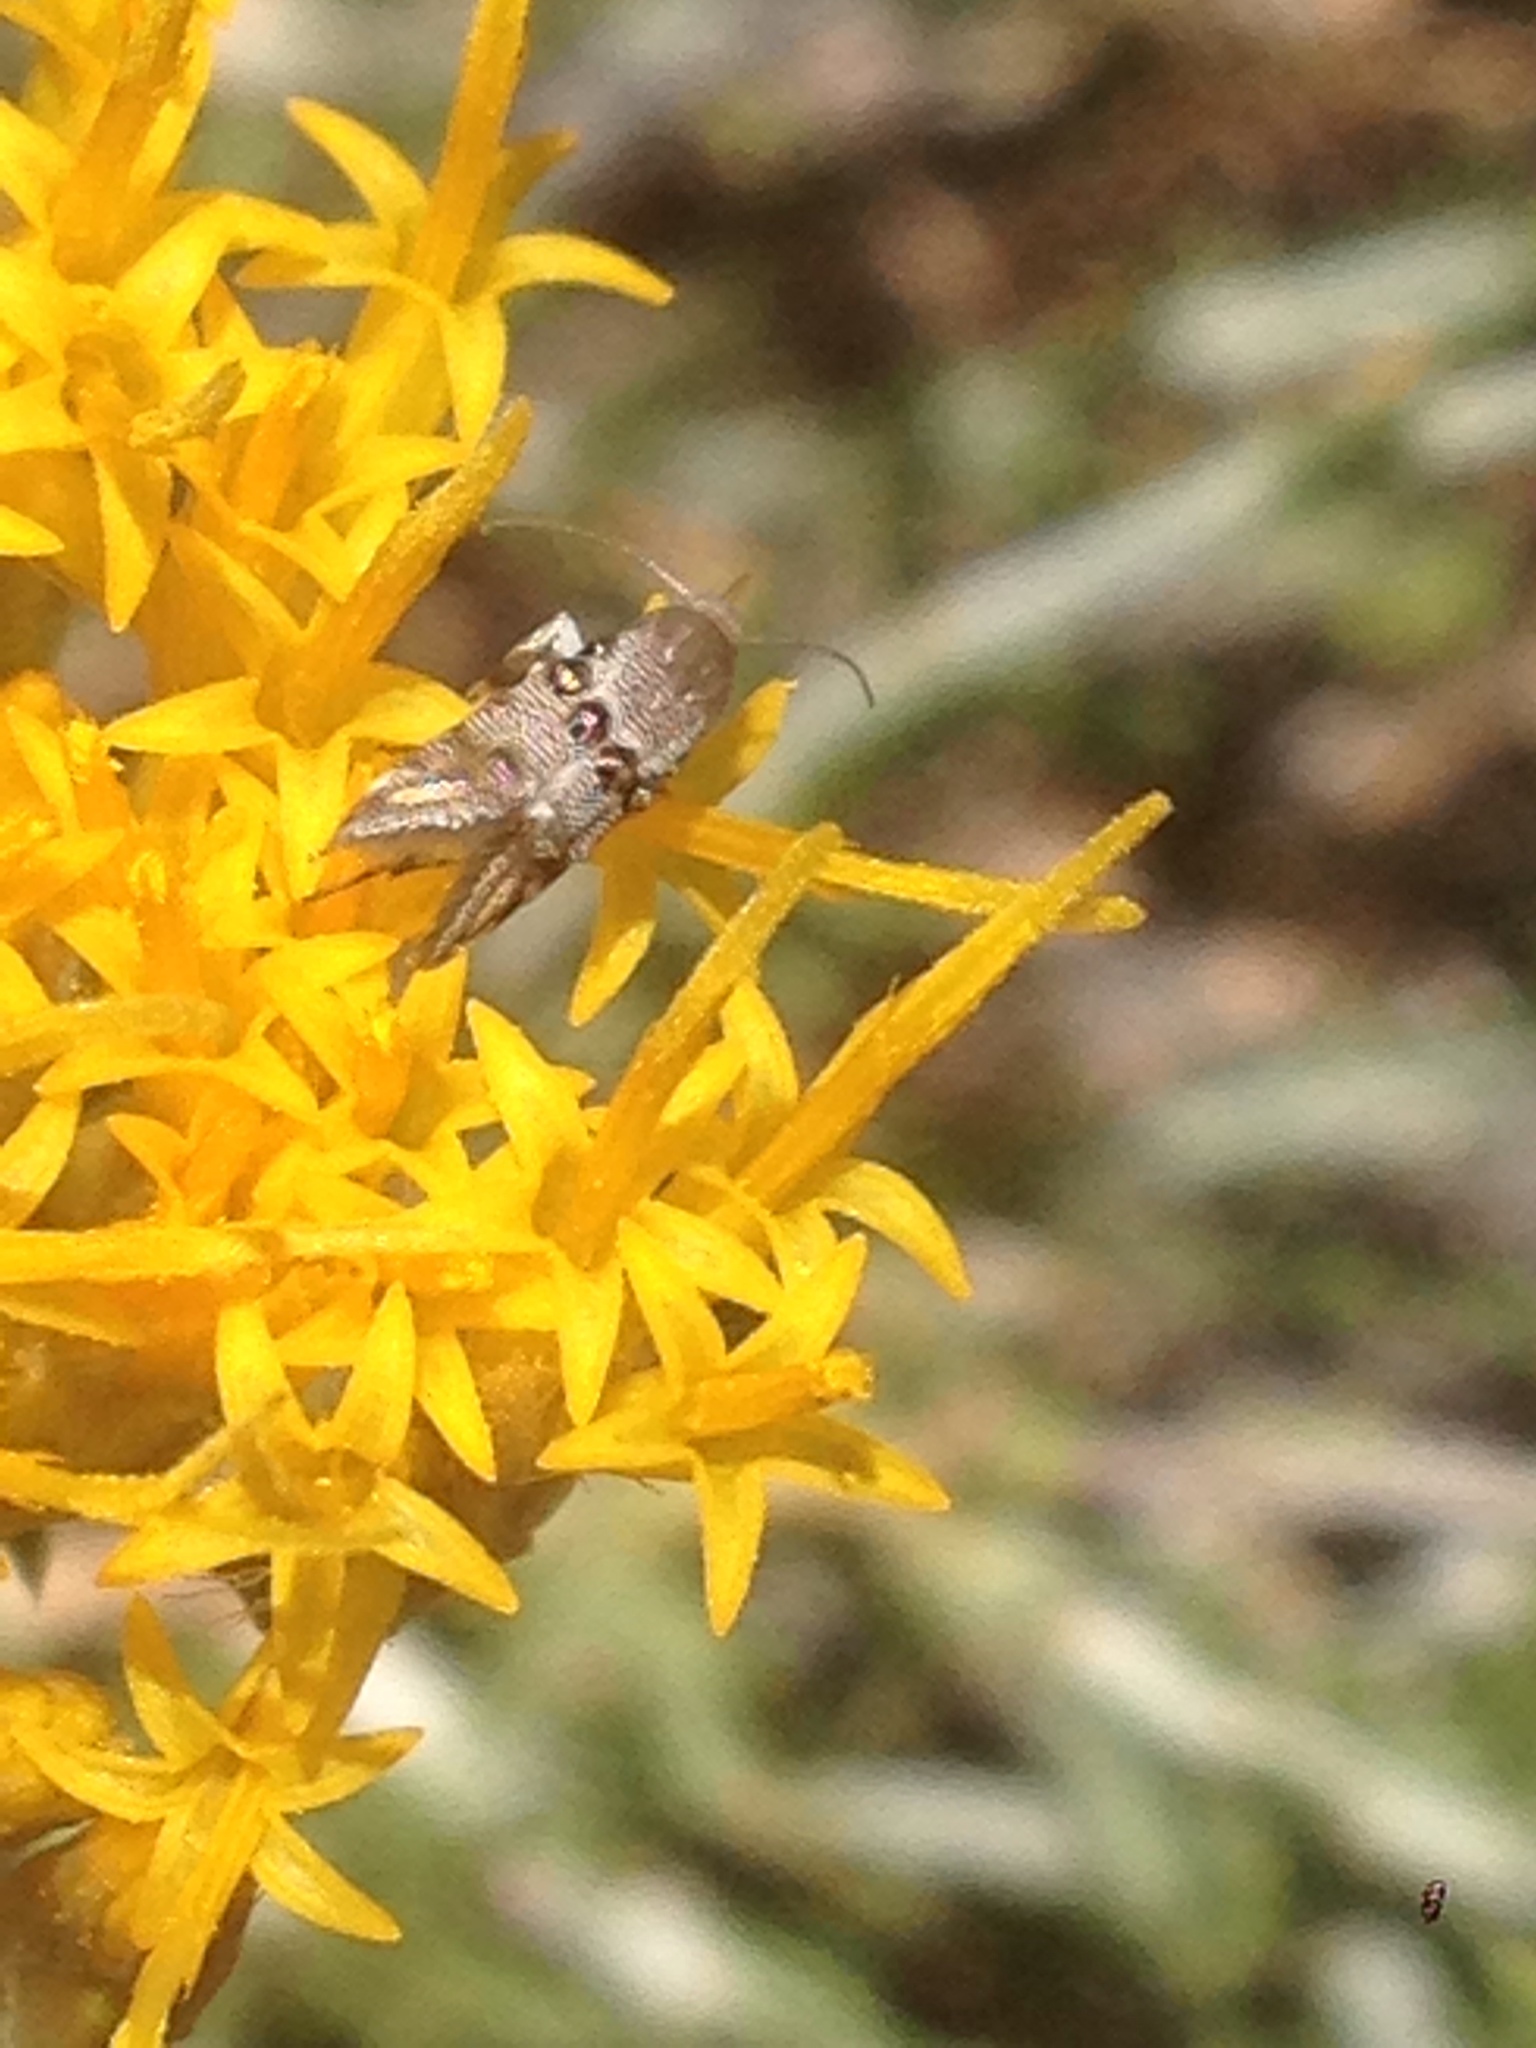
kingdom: Animalia
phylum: Arthropoda
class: Insecta
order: Lepidoptera
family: Heliodinidae
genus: Lithariapteryx
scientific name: Lithariapteryx mirabilinella
